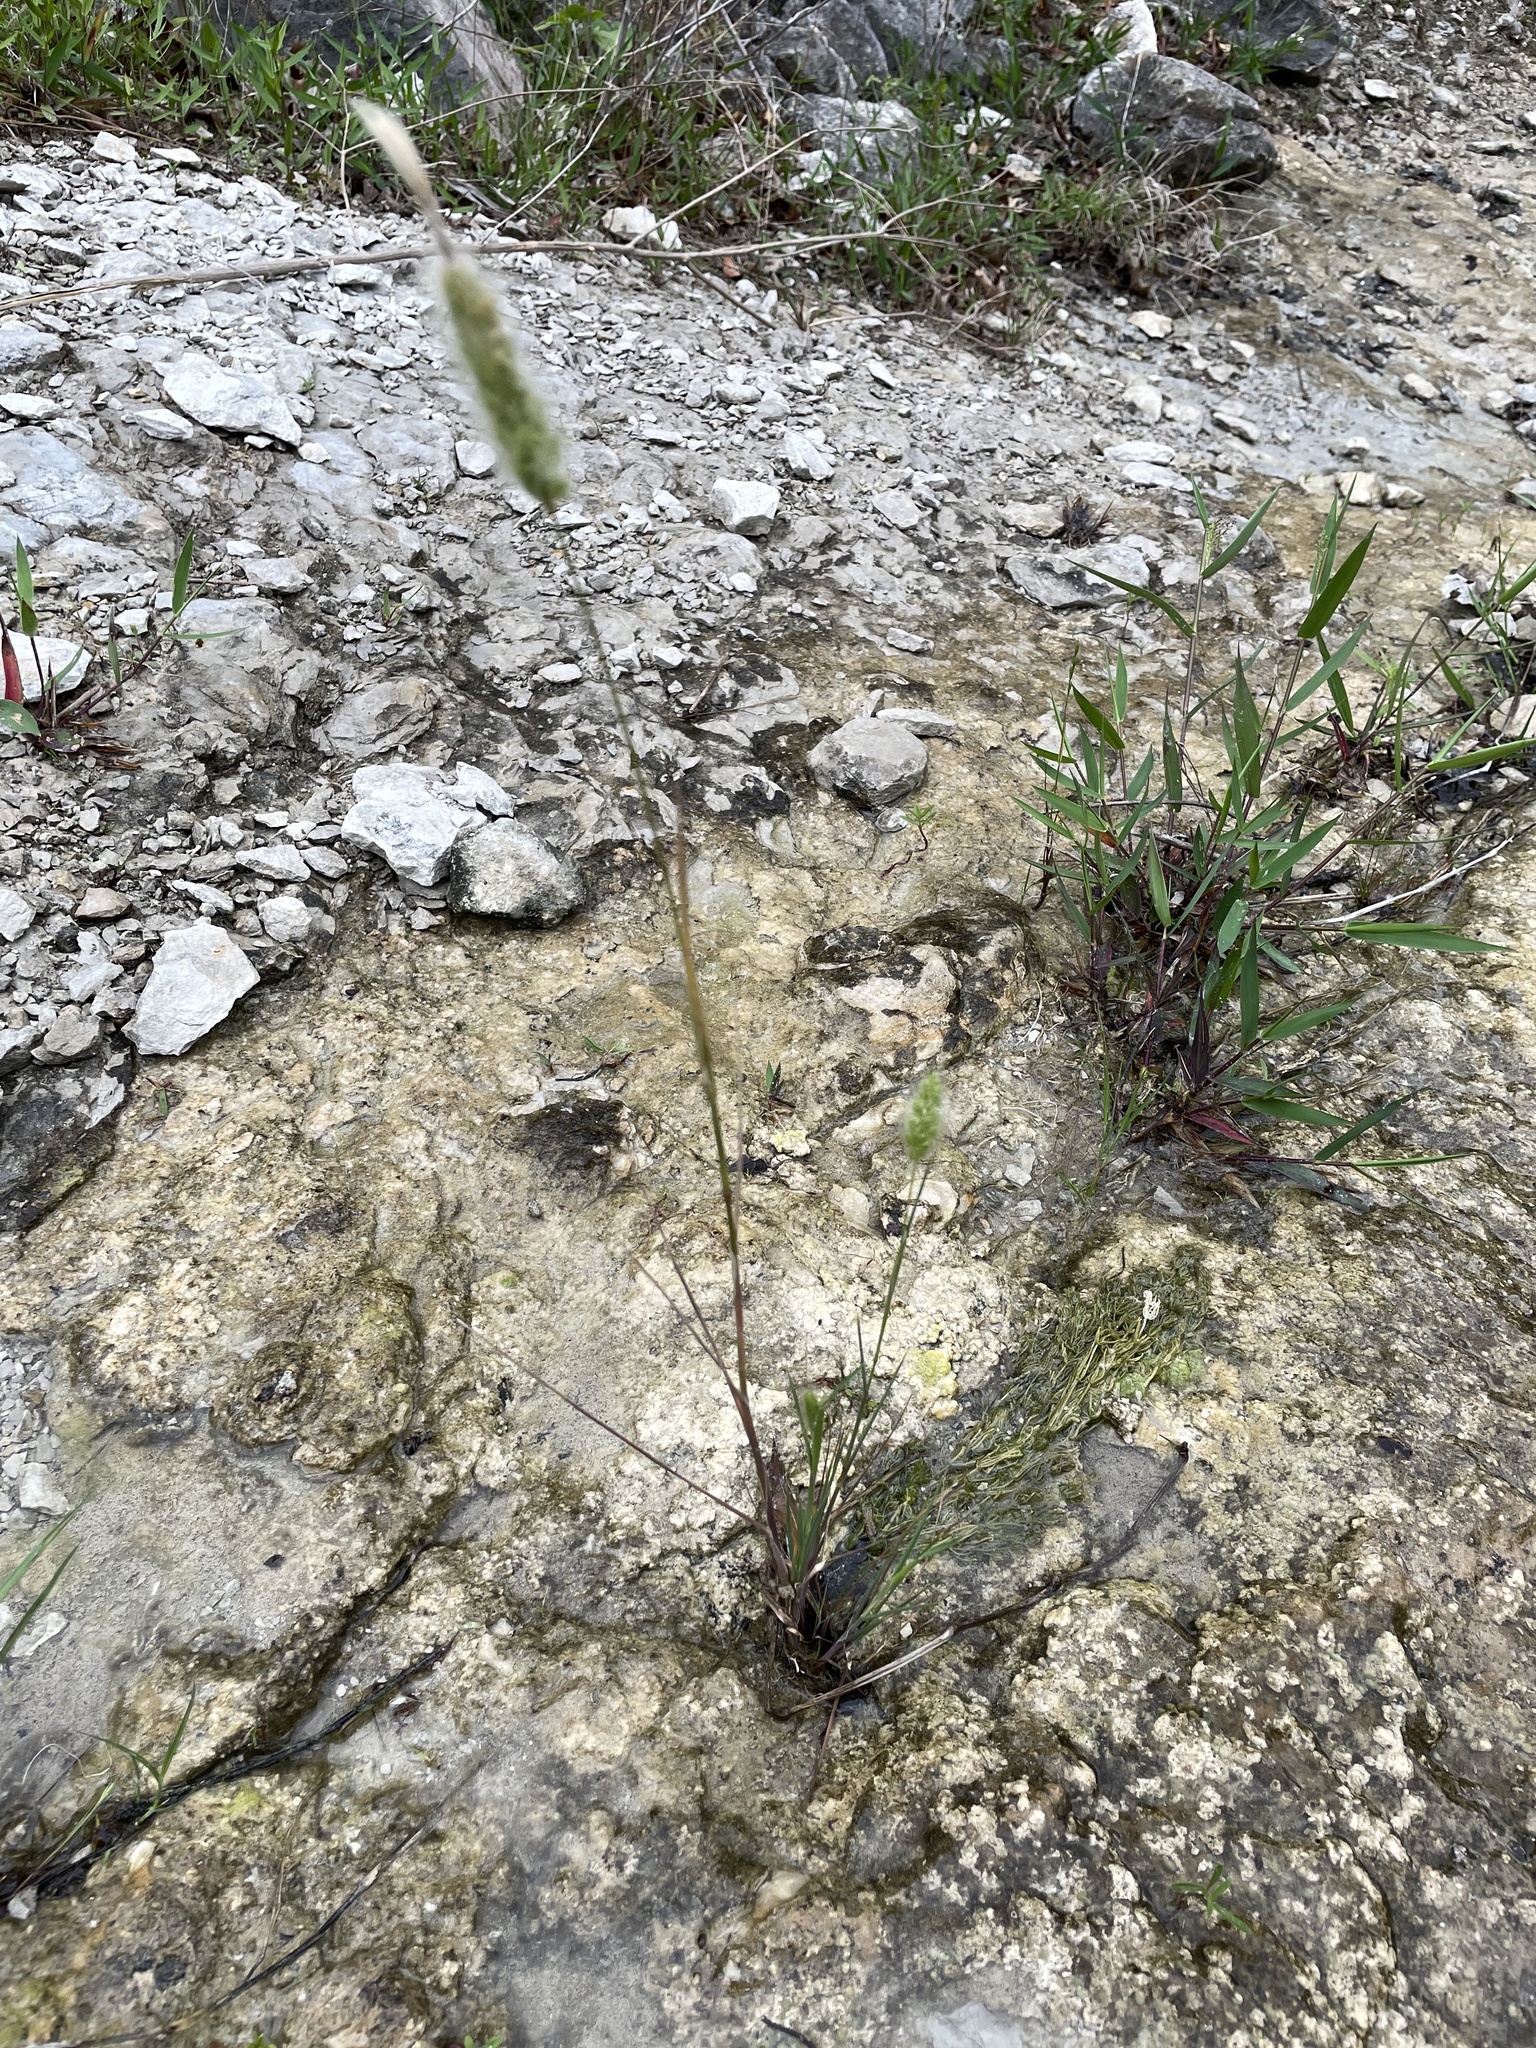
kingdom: Plantae
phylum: Tracheophyta
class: Liliopsida
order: Poales
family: Poaceae
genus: Polypogon
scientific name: Polypogon monspeliensis
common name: Annual rabbitsfoot grass
